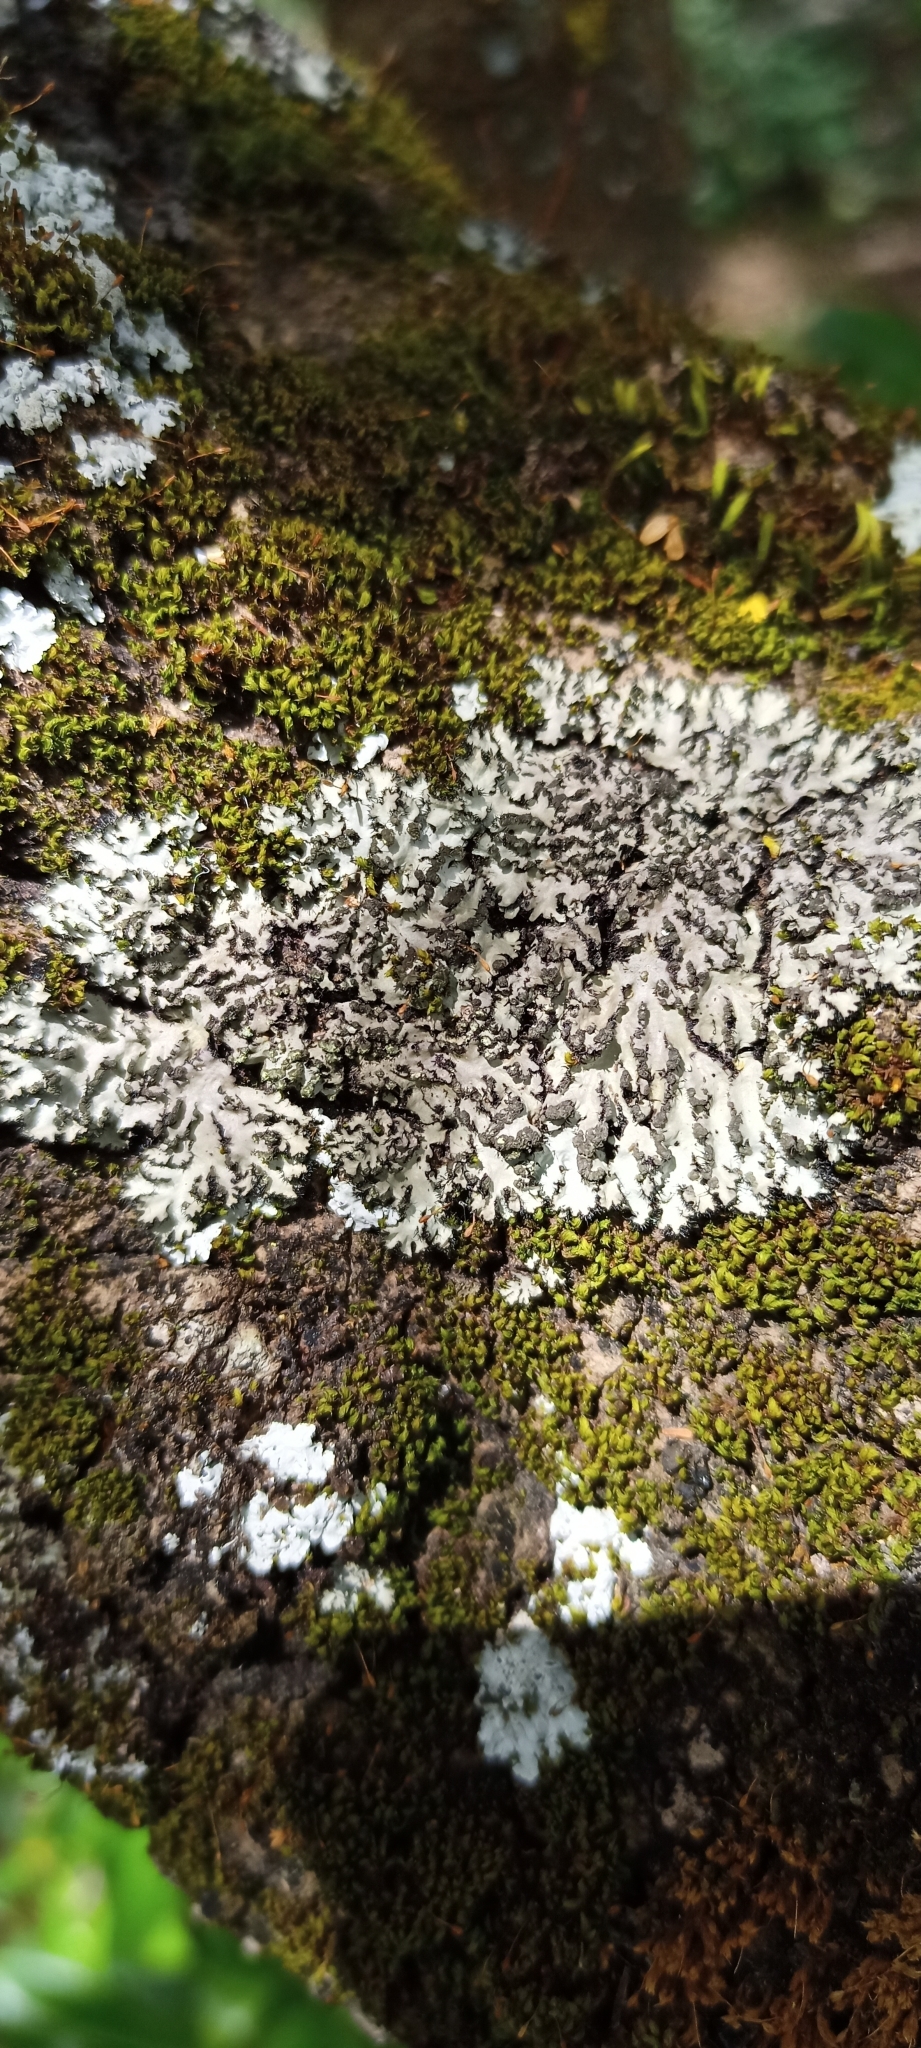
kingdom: Fungi
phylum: Ascomycota
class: Lecanoromycetes
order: Caliciales
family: Physciaceae
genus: Phaeophyscia
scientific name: Phaeophyscia hispidula
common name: Whiskered shadow lichen
